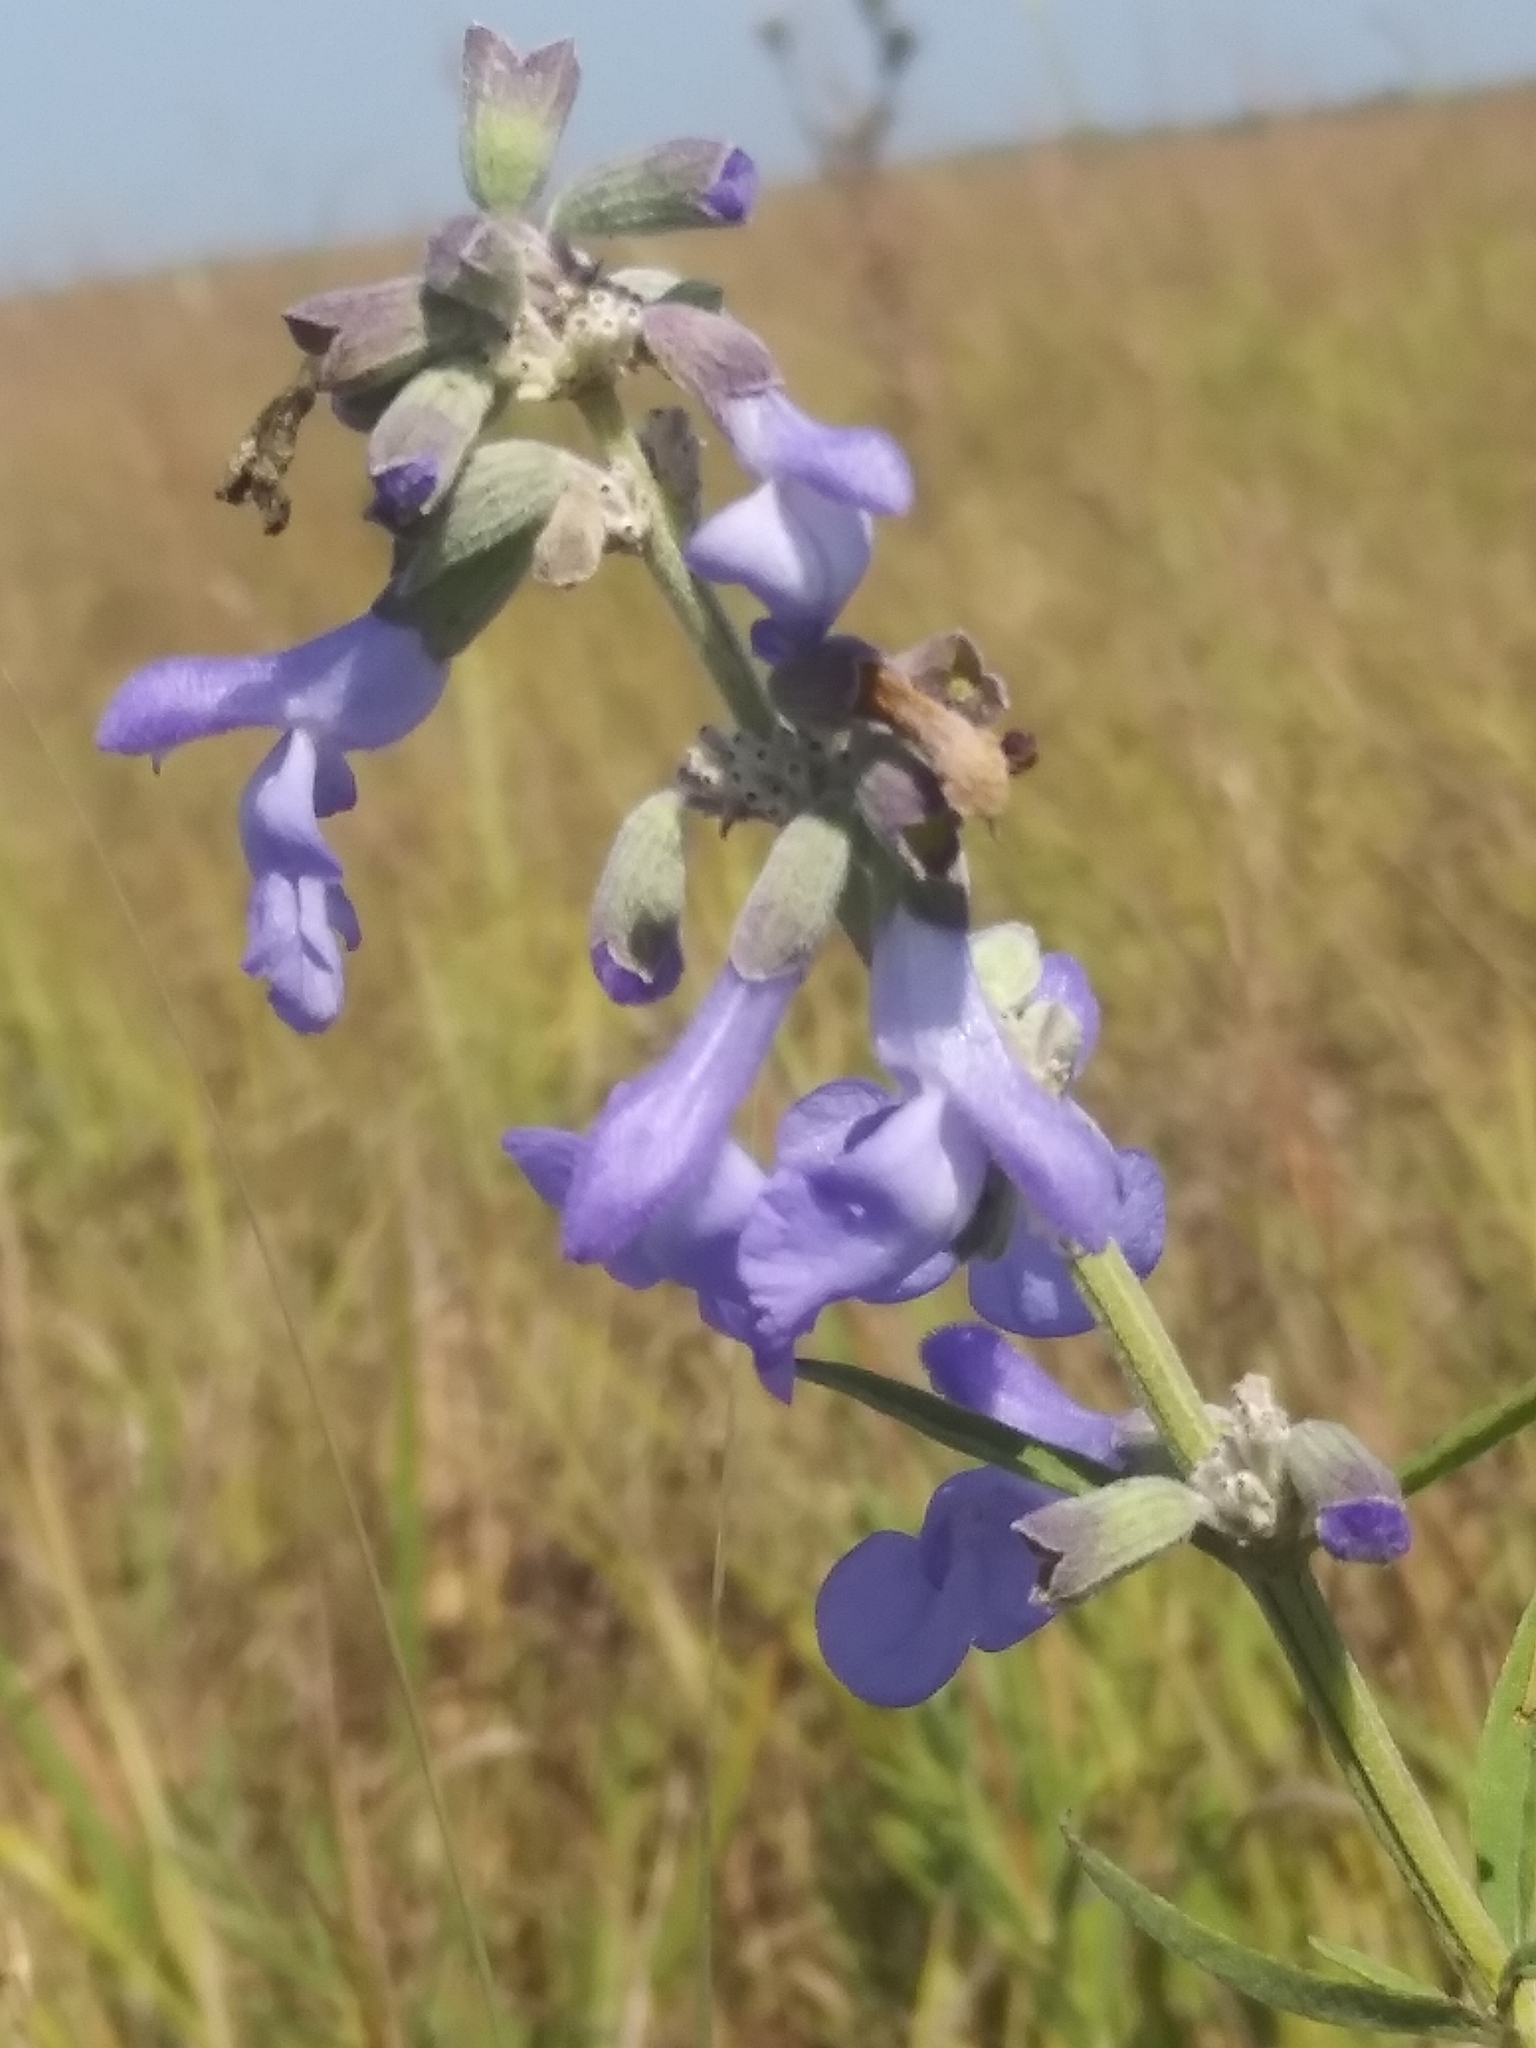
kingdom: Plantae
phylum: Tracheophyta
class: Magnoliopsida
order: Lamiales
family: Lamiaceae
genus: Salvia
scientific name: Salvia azurea
